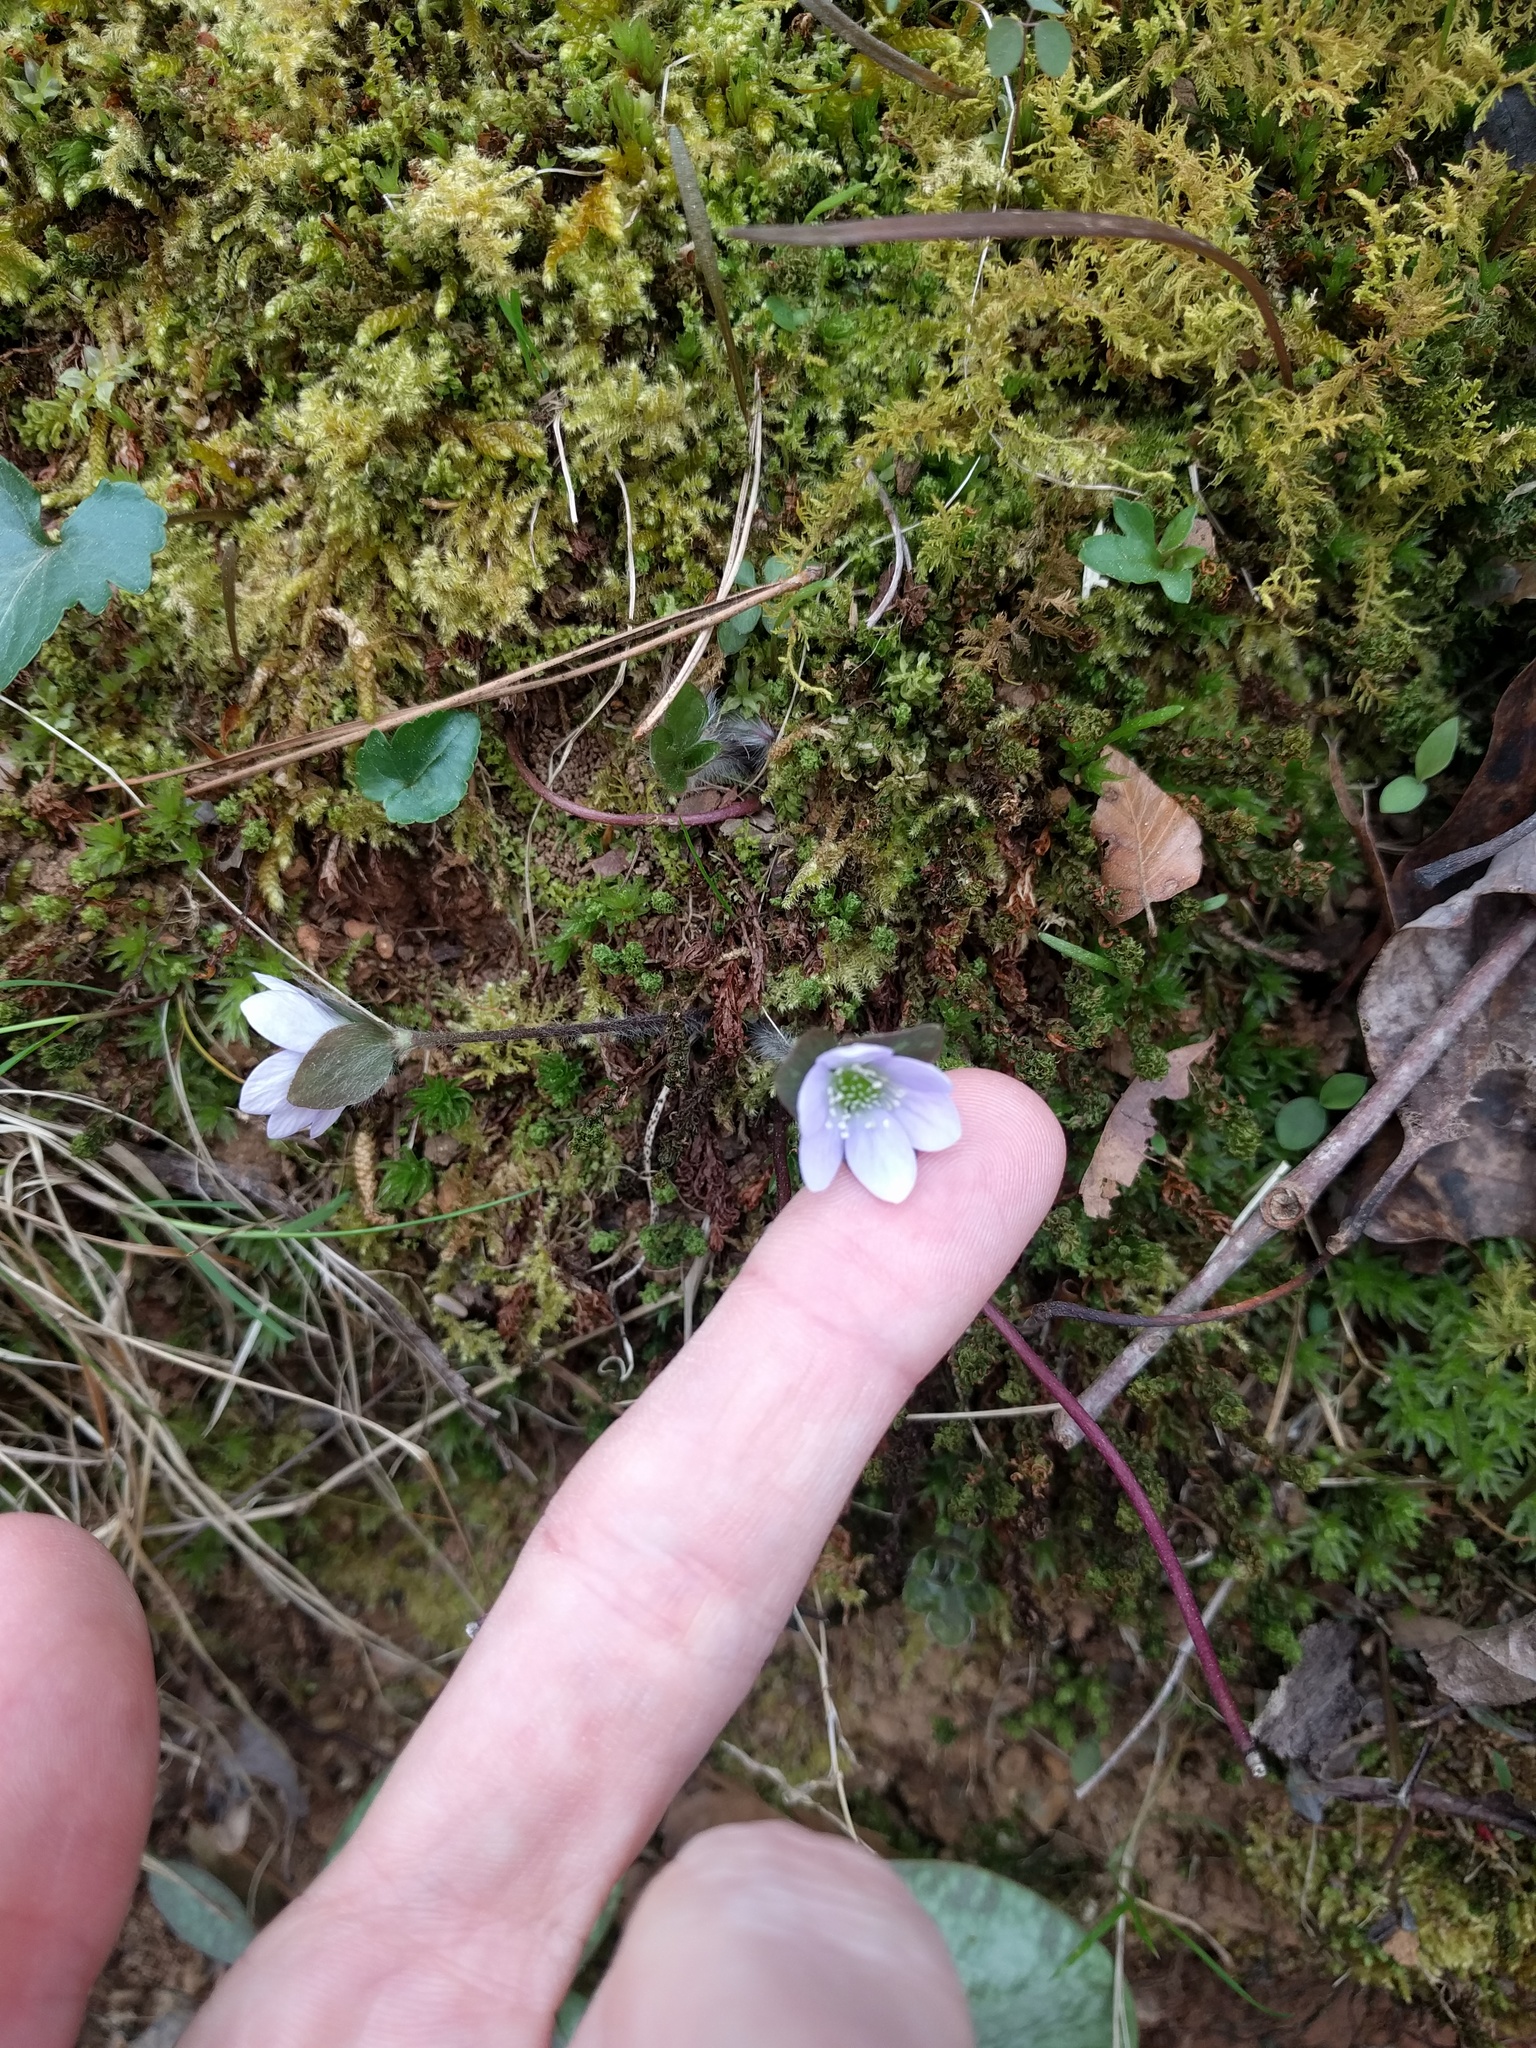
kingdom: Plantae
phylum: Tracheophyta
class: Magnoliopsida
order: Ranunculales
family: Ranunculaceae
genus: Hepatica
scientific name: Hepatica americana
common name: American hepatica
